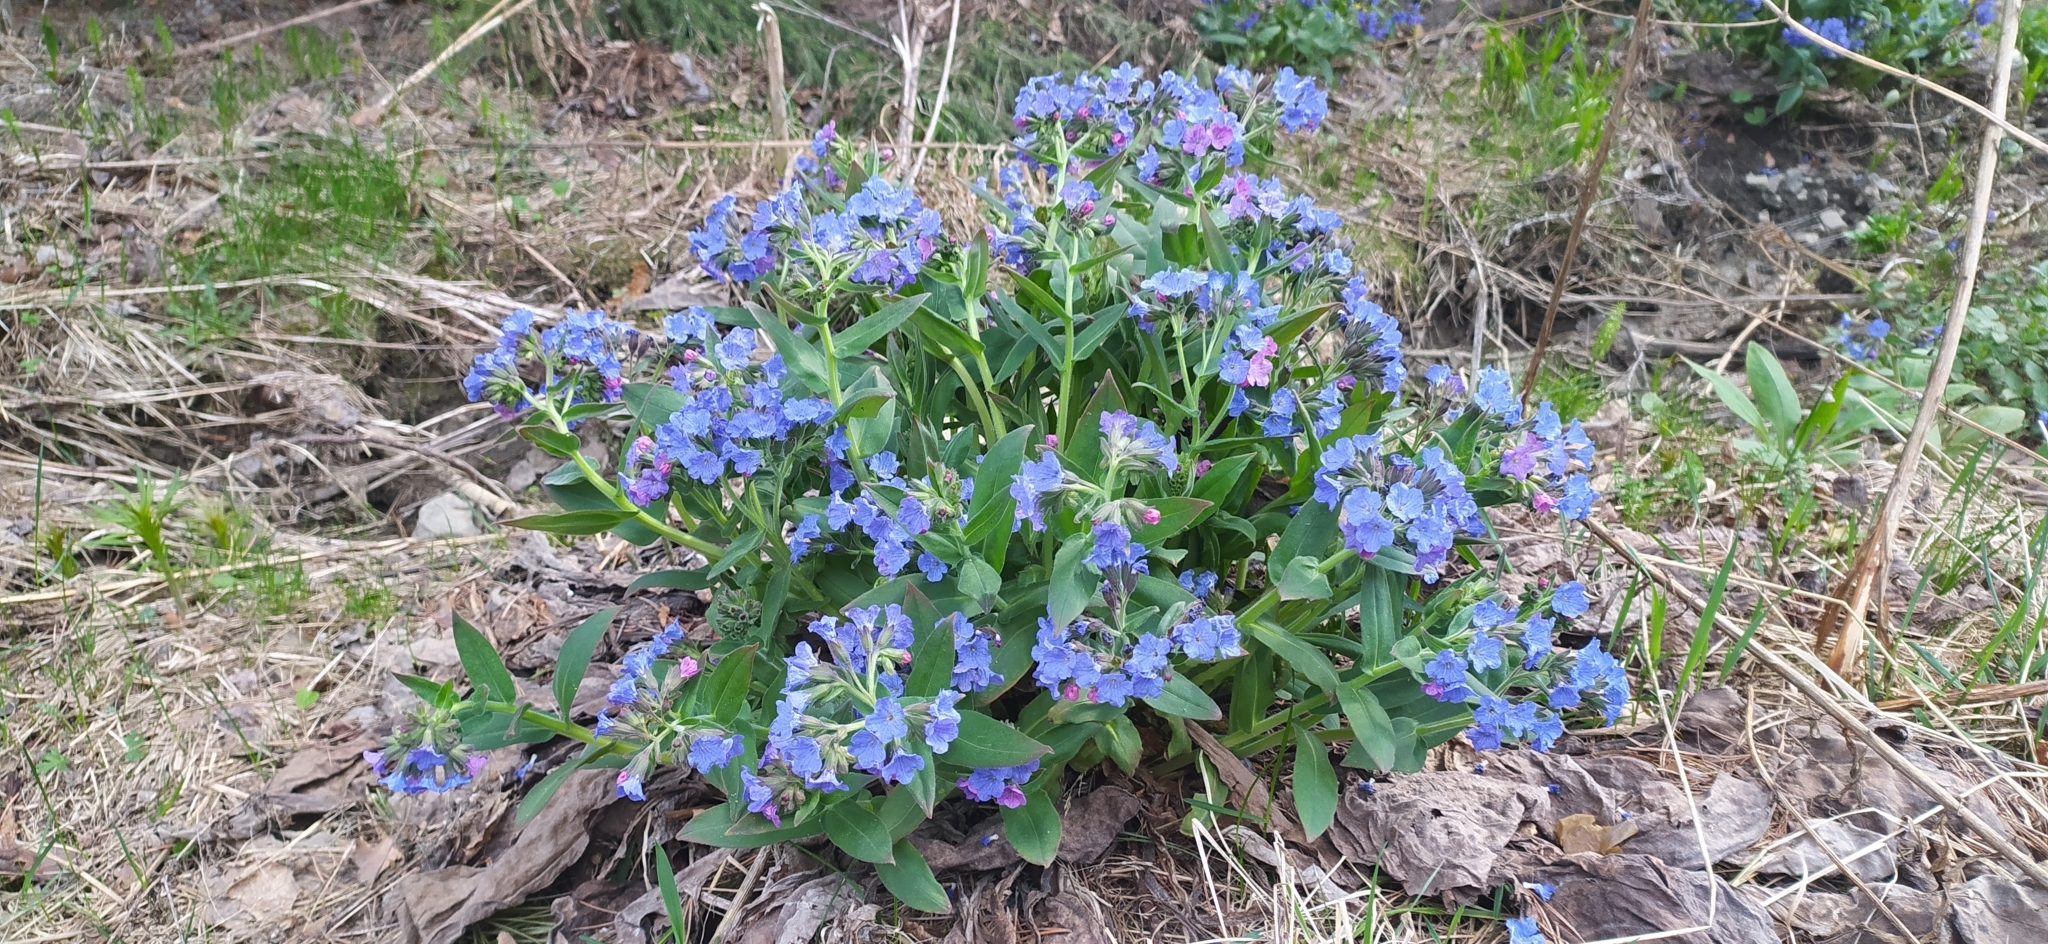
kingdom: Plantae
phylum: Tracheophyta
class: Magnoliopsida
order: Boraginales
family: Boraginaceae
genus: Pulmonaria
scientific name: Pulmonaria mollis
